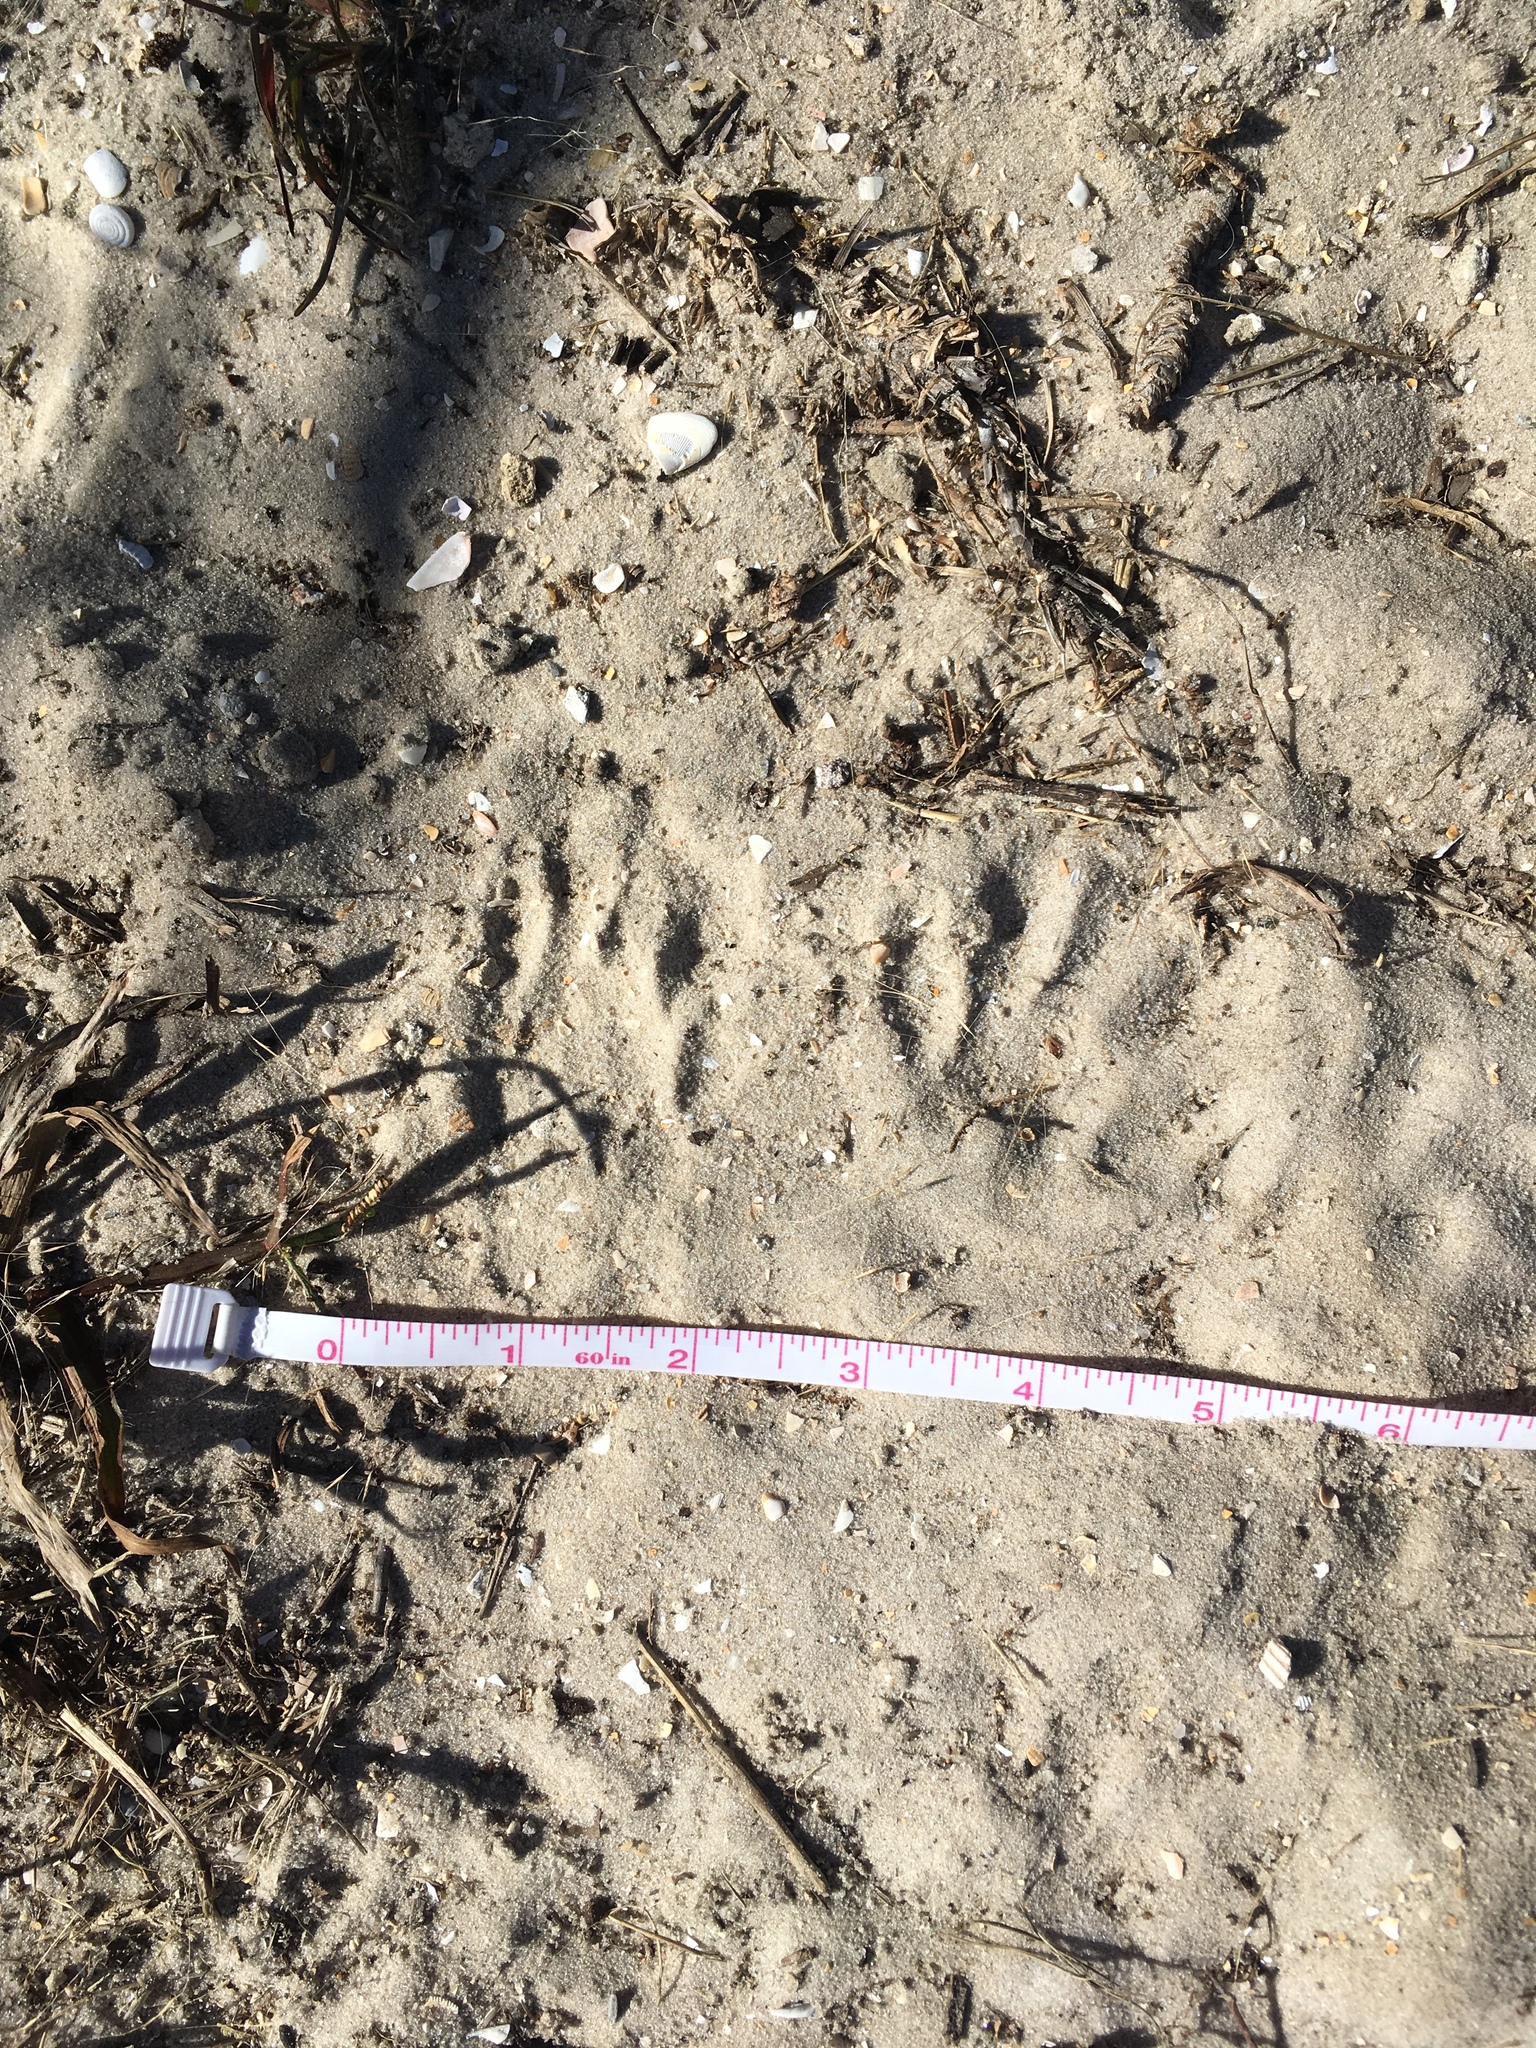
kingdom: Animalia
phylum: Chordata
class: Mammalia
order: Carnivora
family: Procyonidae
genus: Procyon
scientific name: Procyon lotor
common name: Raccoon
